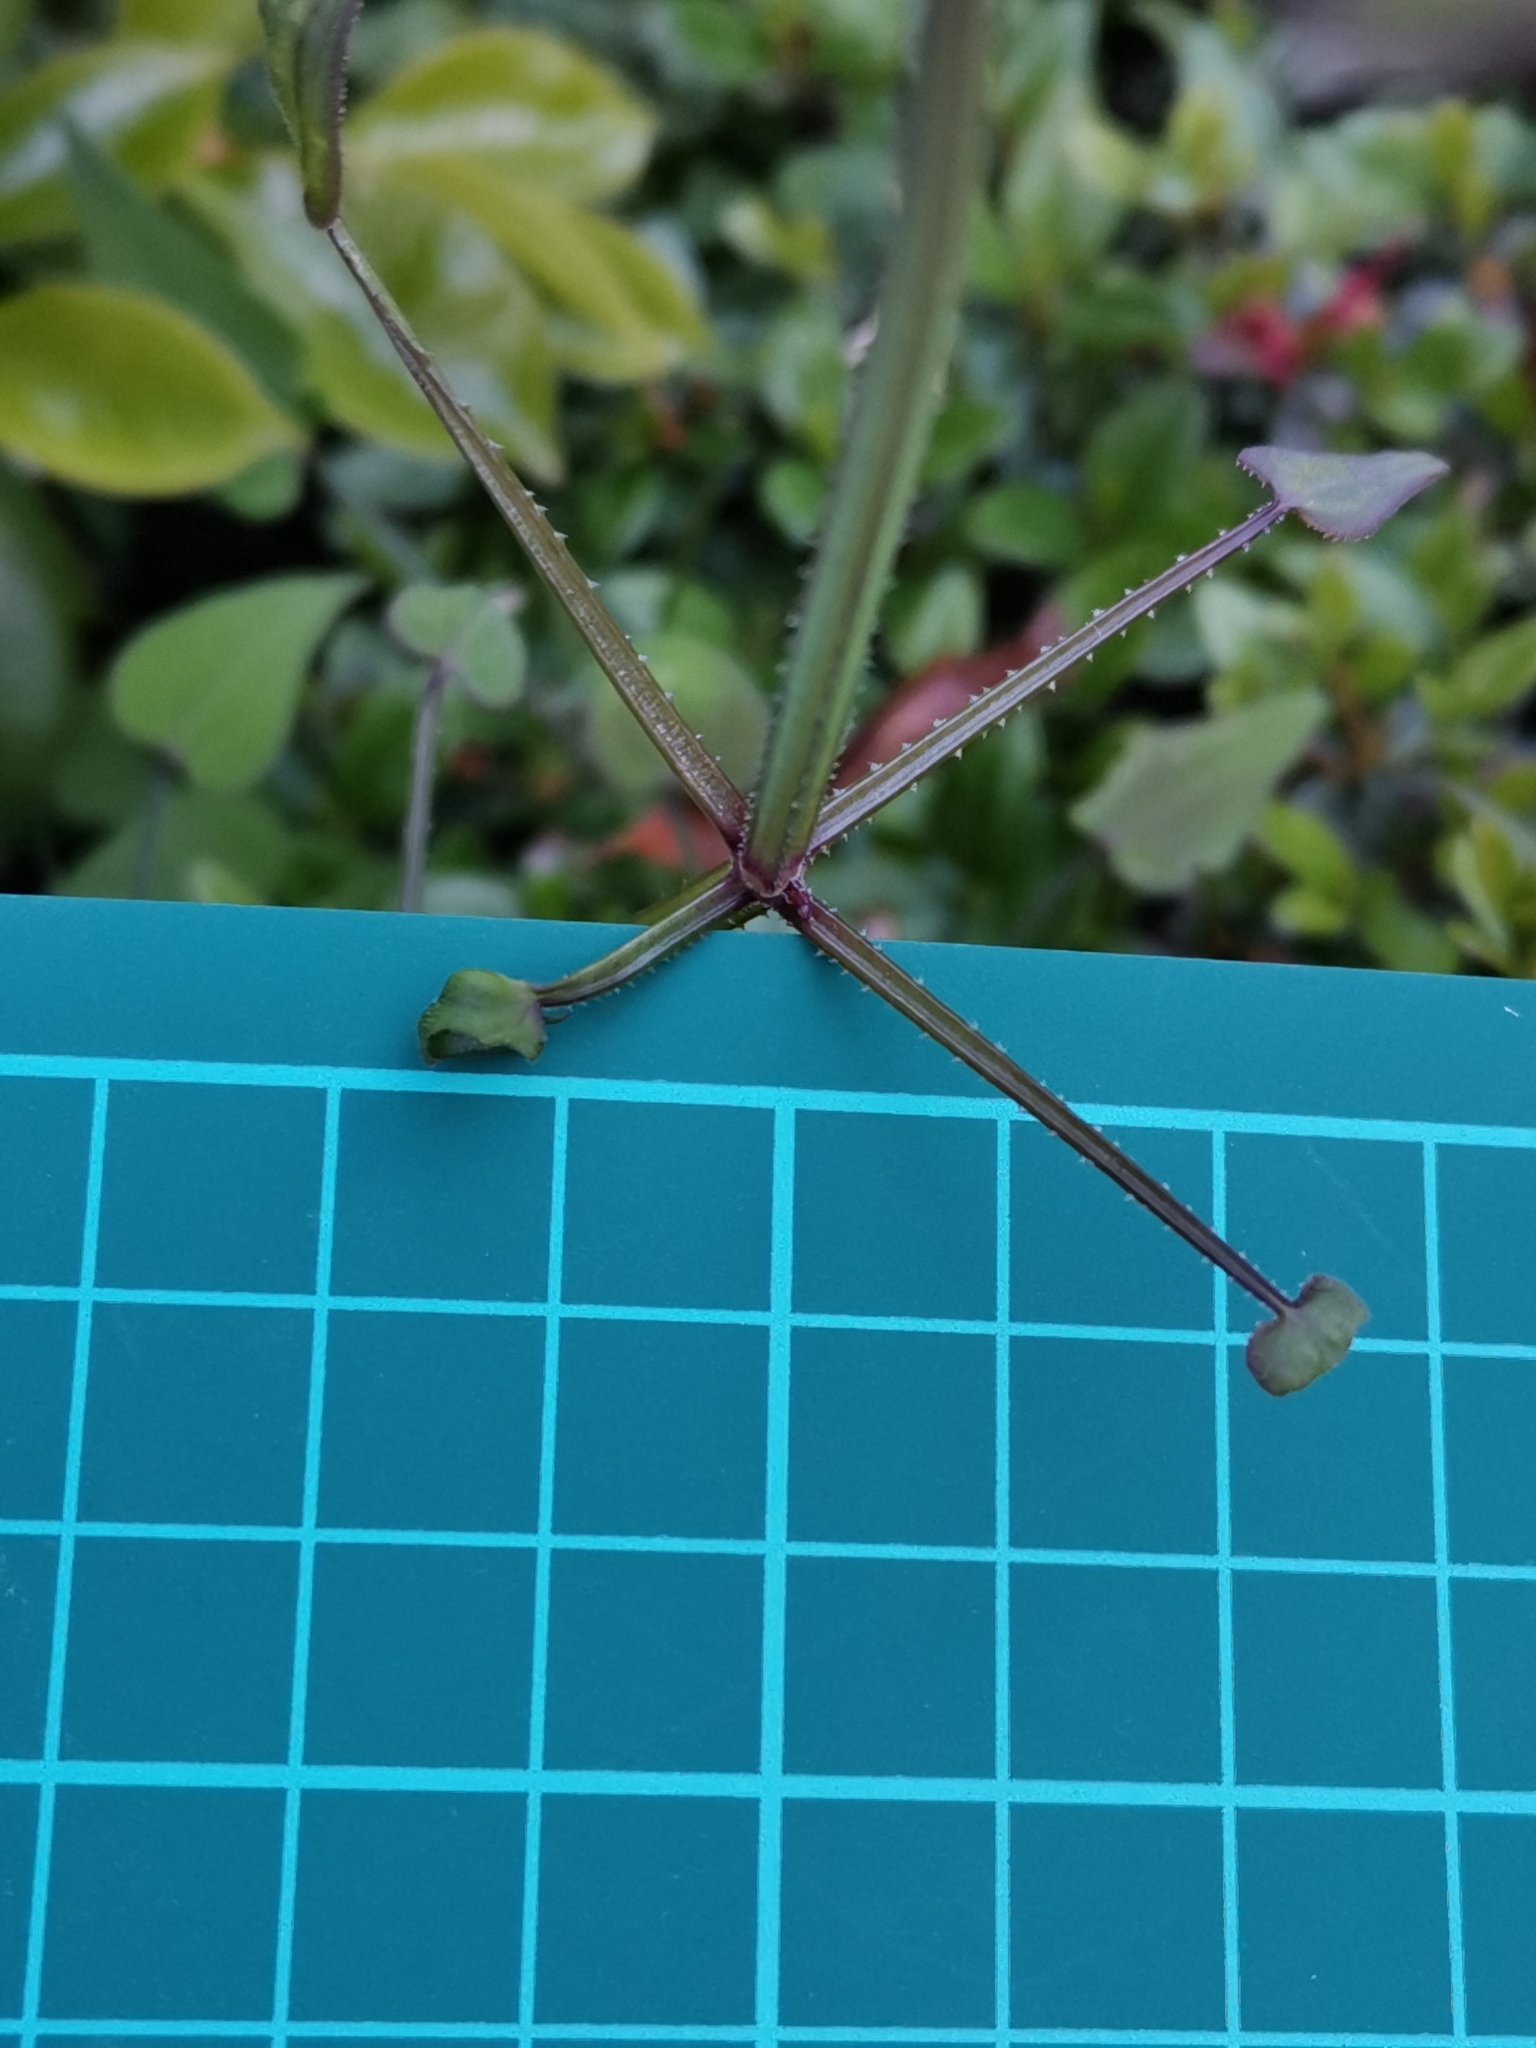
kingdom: Plantae
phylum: Tracheophyta
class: Magnoliopsida
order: Gentianales
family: Rubiaceae
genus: Rubia
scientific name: Rubia argyi
